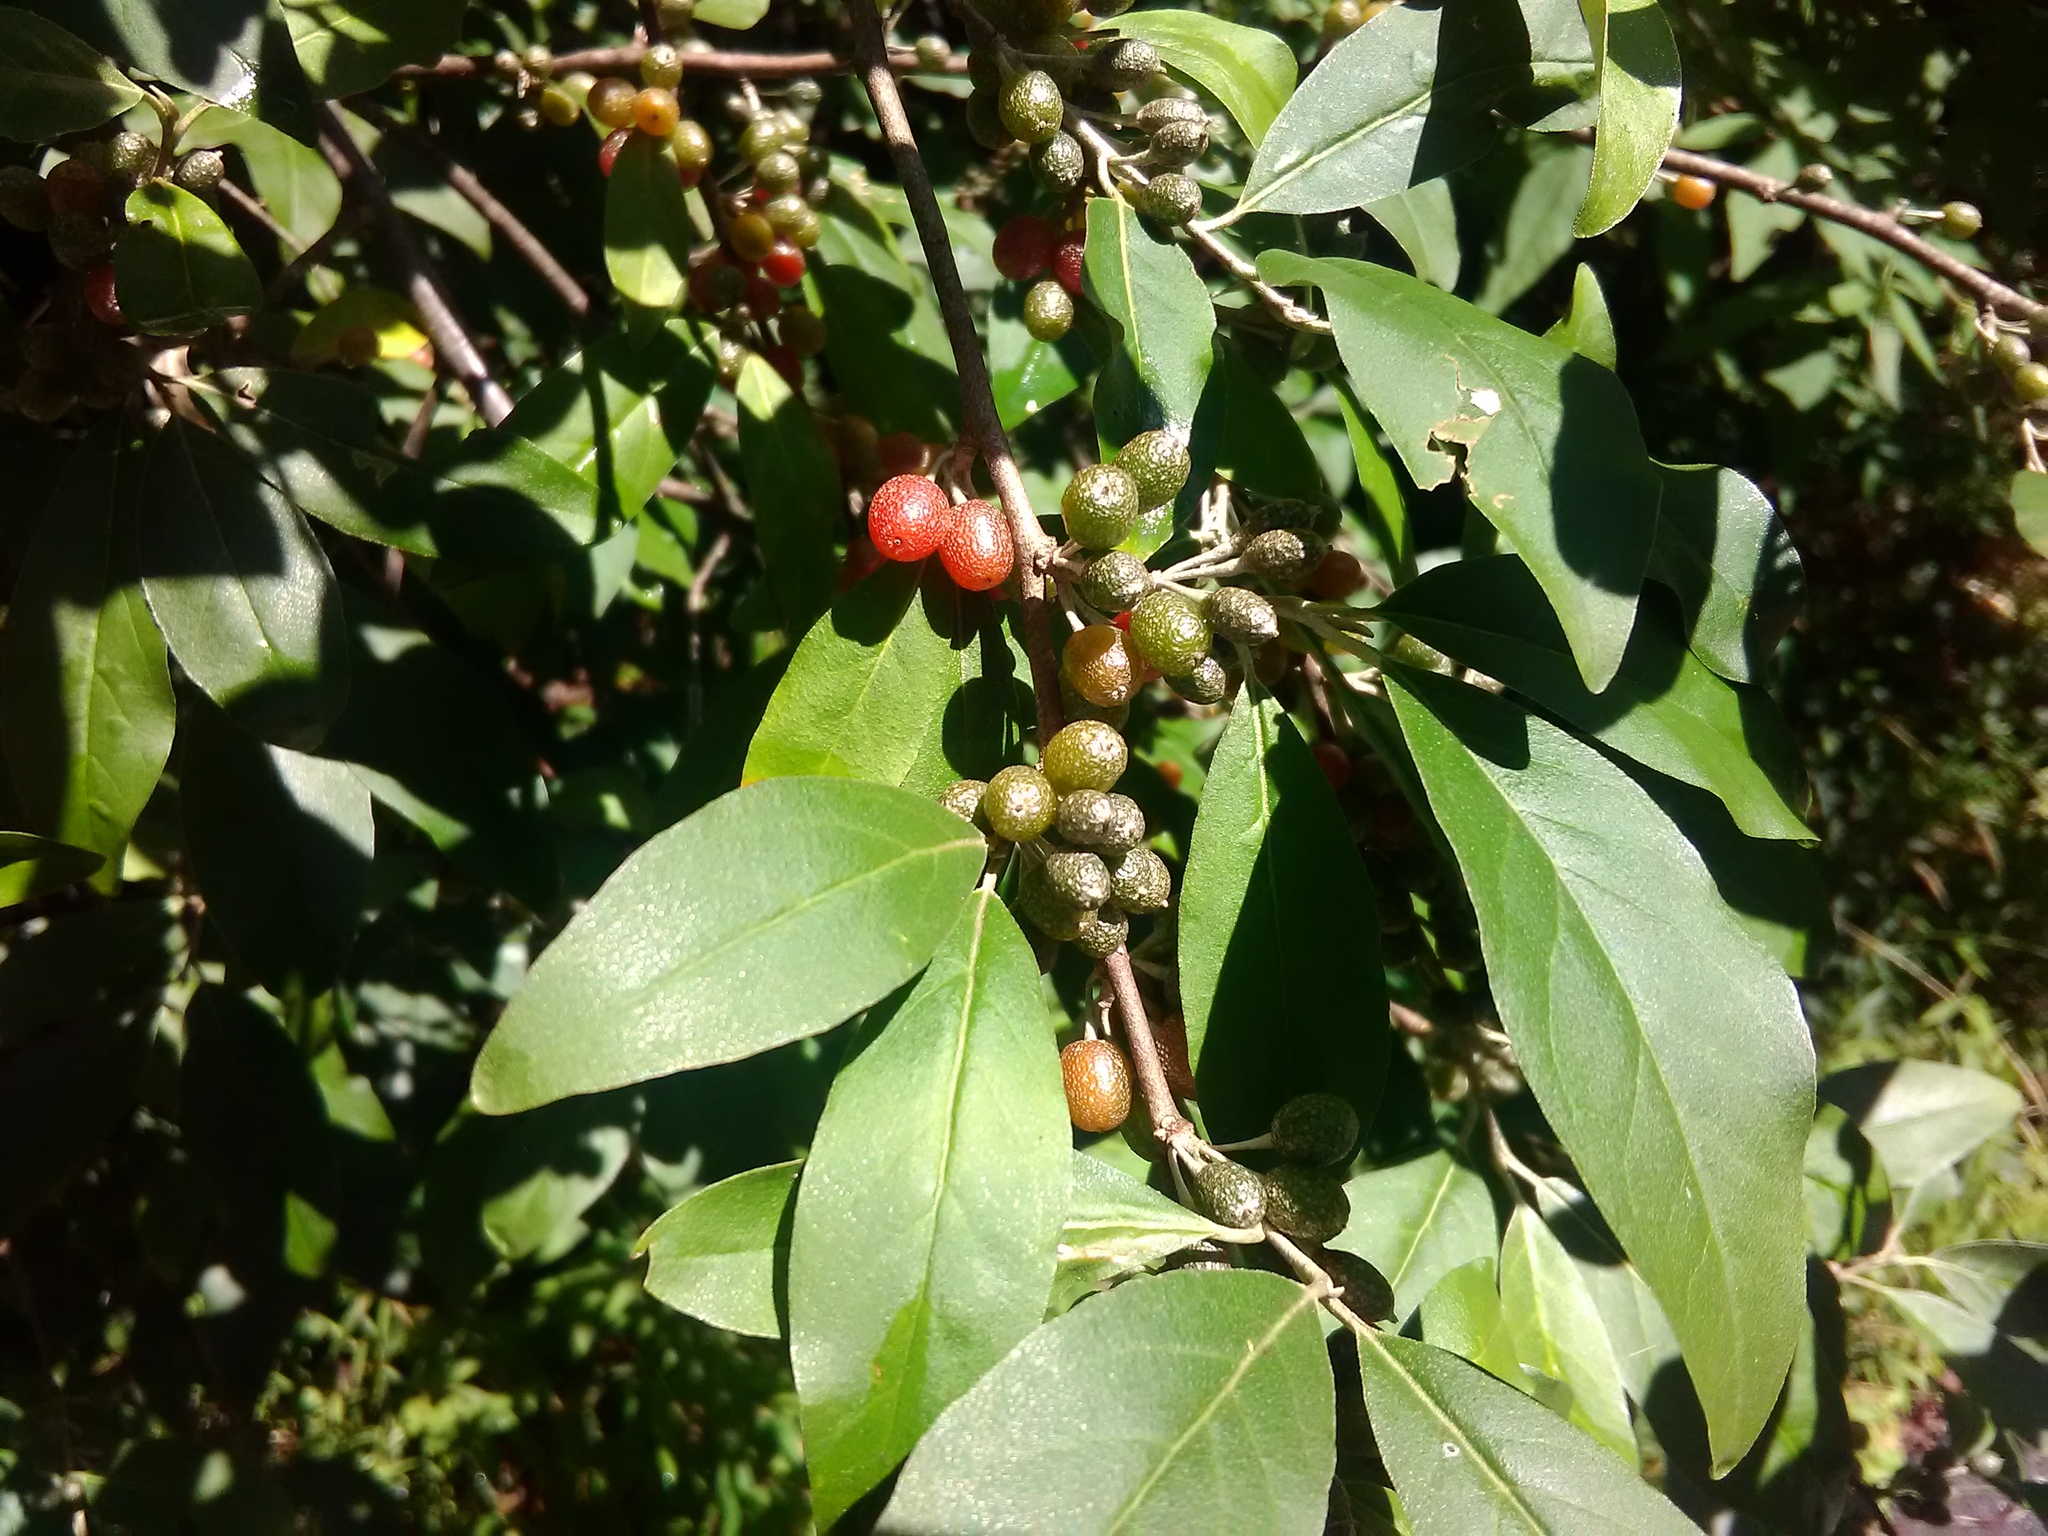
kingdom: Plantae
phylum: Tracheophyta
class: Magnoliopsida
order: Rosales
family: Elaeagnaceae
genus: Elaeagnus
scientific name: Elaeagnus umbellata
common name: Autumn olive
